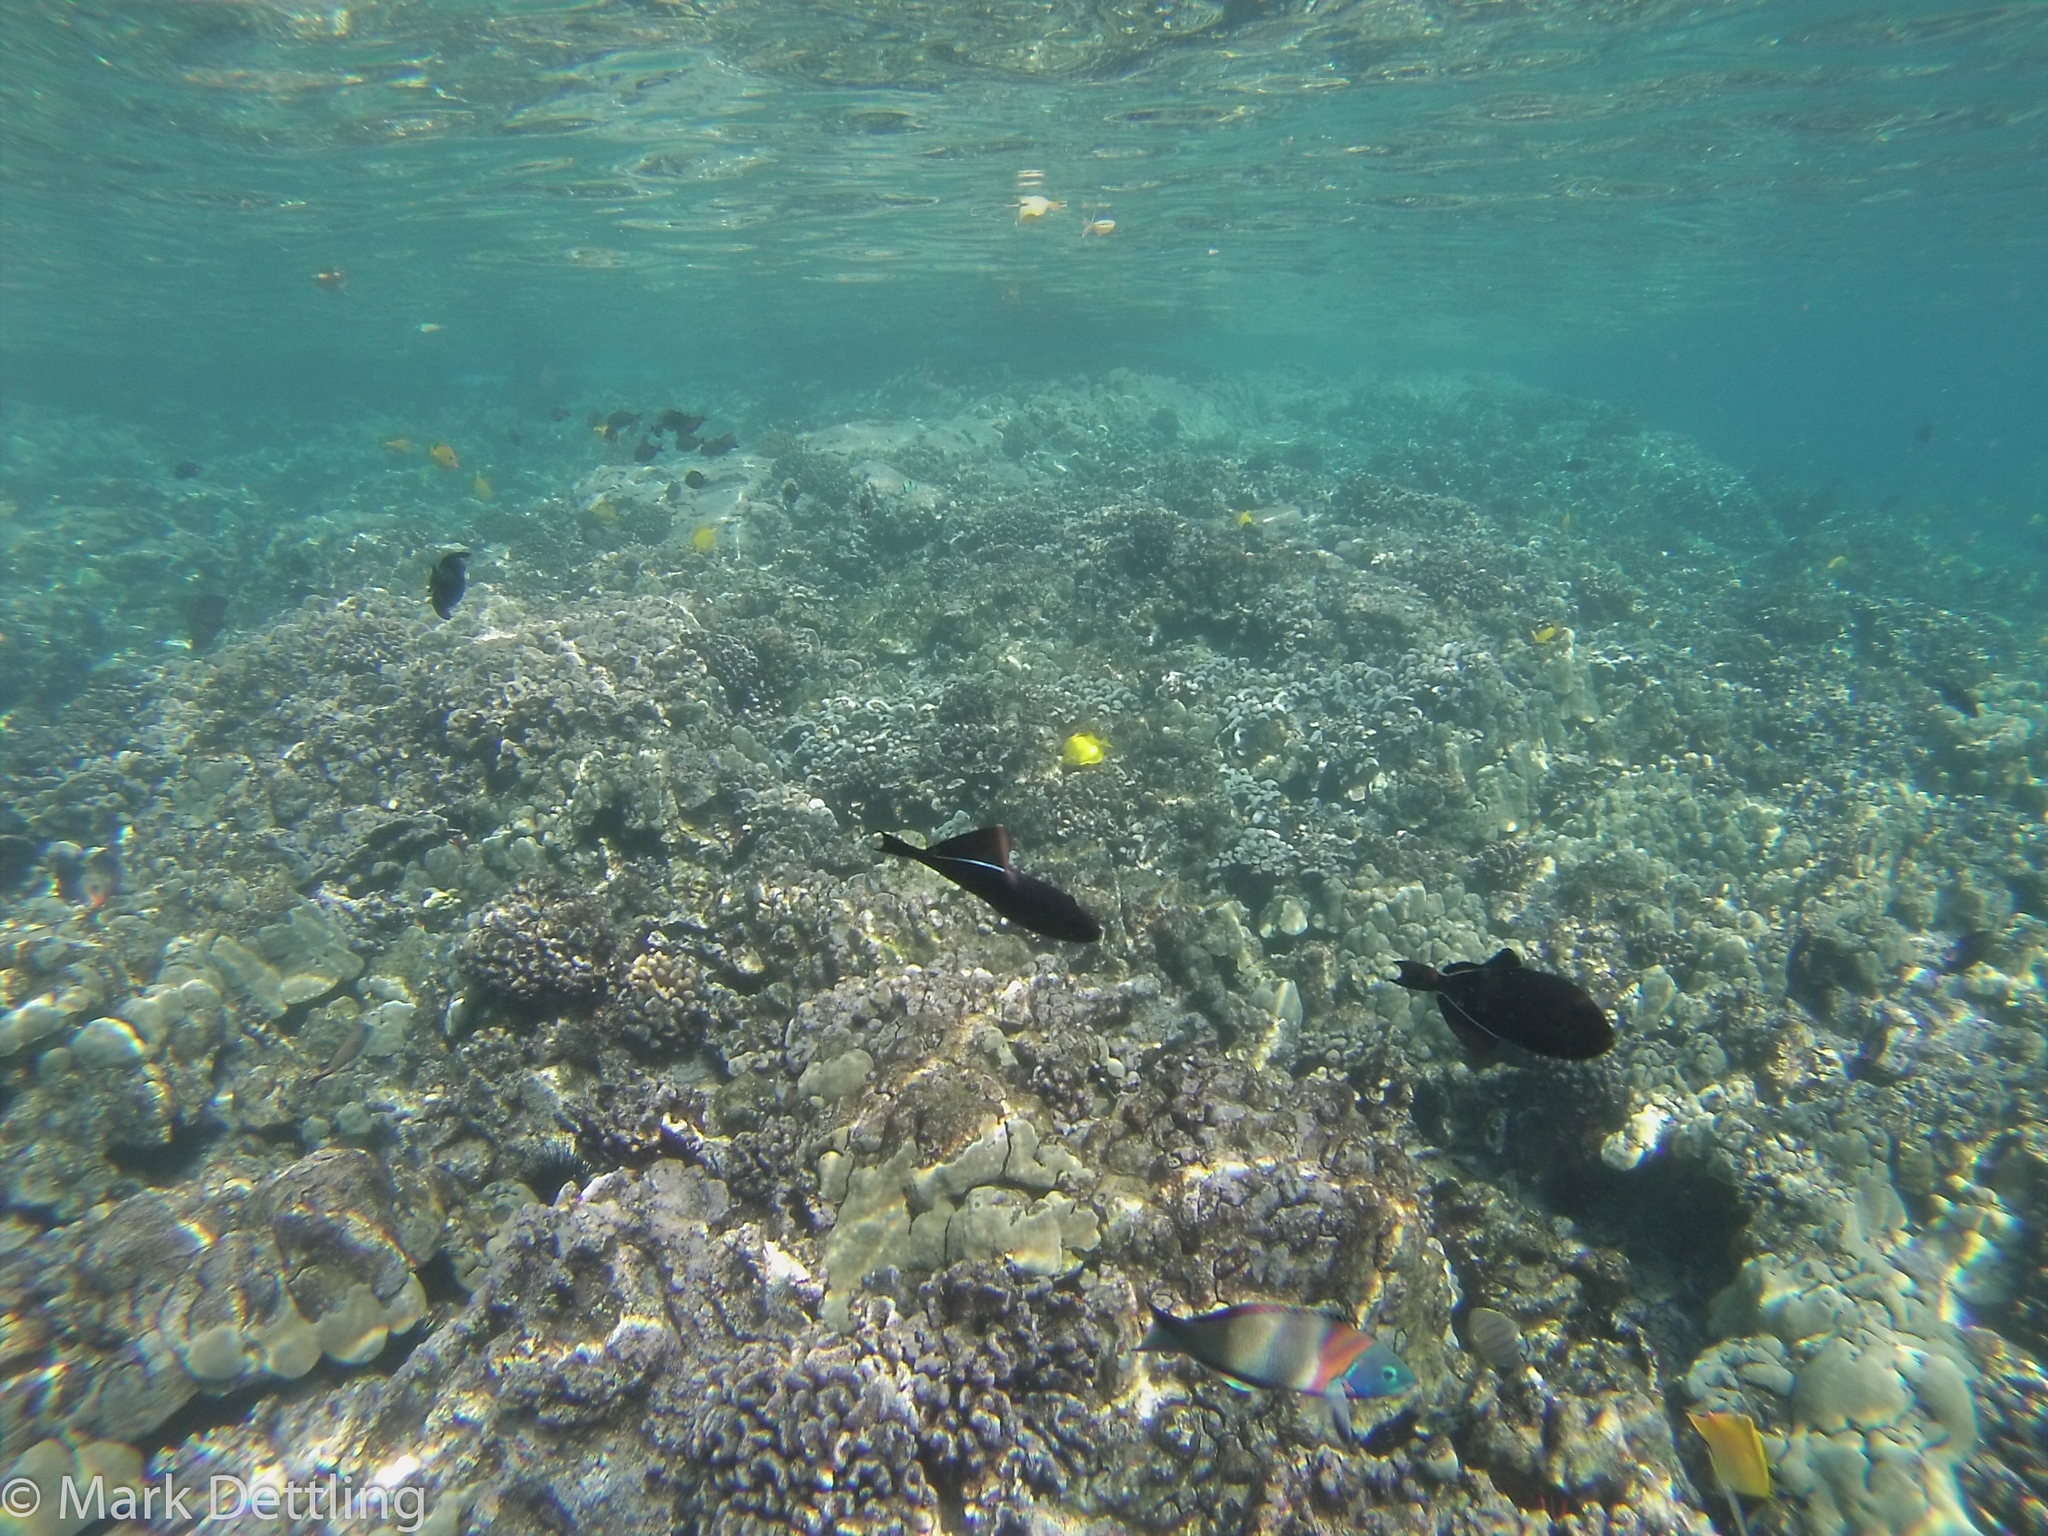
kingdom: Animalia
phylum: Chordata
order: Perciformes
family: Labridae
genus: Thalassoma
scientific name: Thalassoma duperrey
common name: Saddle wrasse
